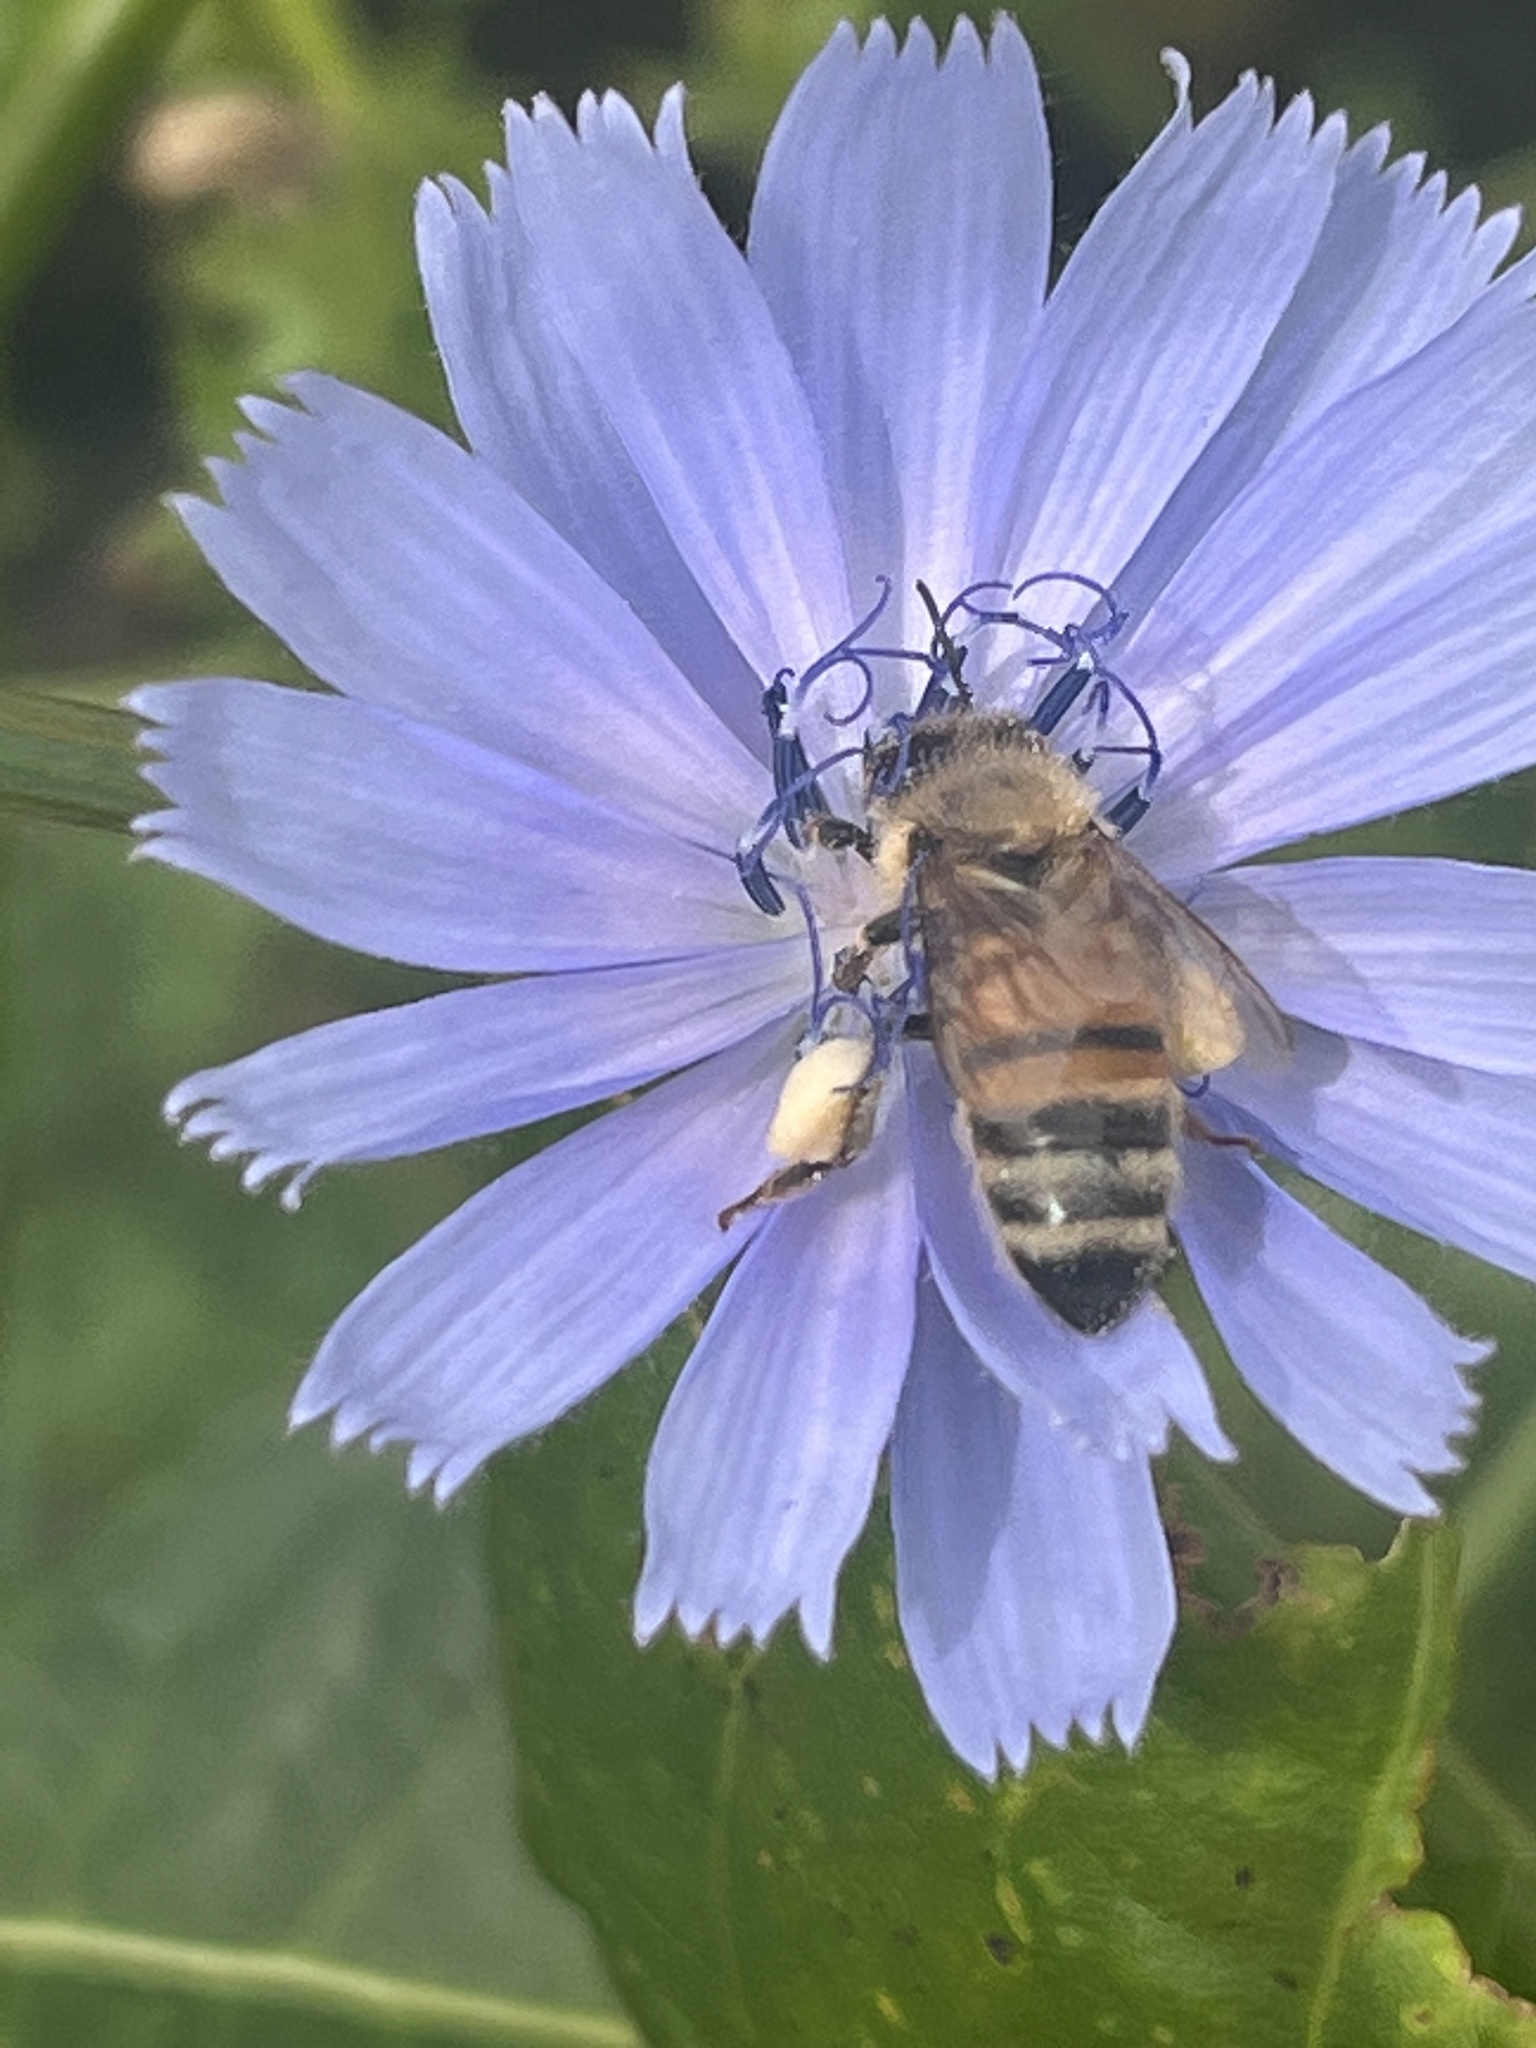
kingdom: Animalia
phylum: Arthropoda
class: Insecta
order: Hymenoptera
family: Apidae
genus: Apis
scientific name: Apis mellifera
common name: Honey bee
